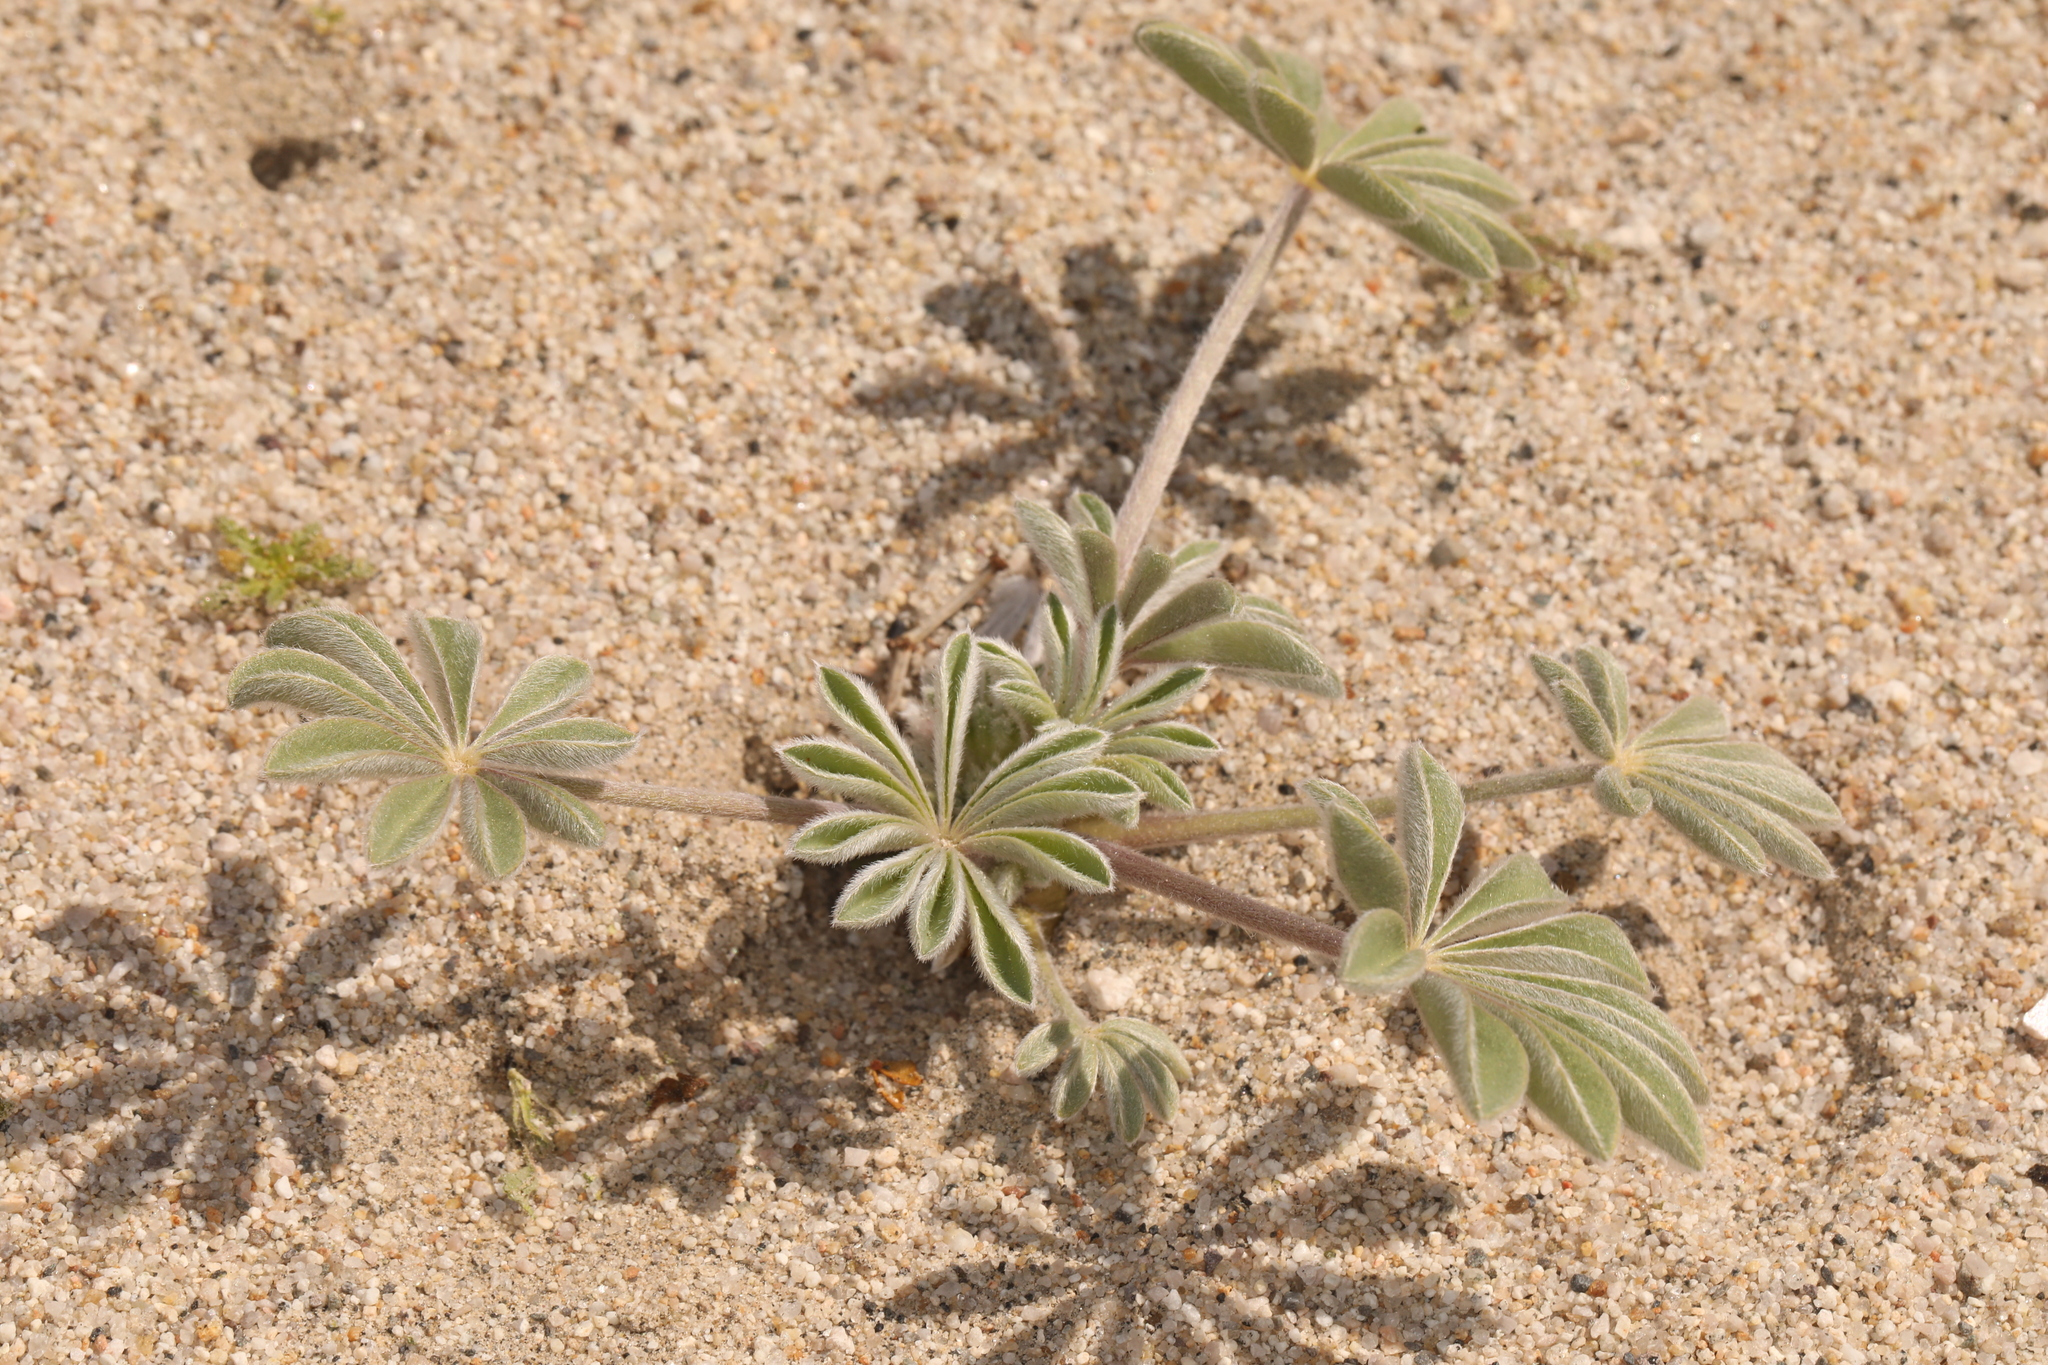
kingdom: Plantae
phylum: Tracheophyta
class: Magnoliopsida
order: Fabales
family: Fabaceae
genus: Lupinus
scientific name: Lupinus shockleyi
